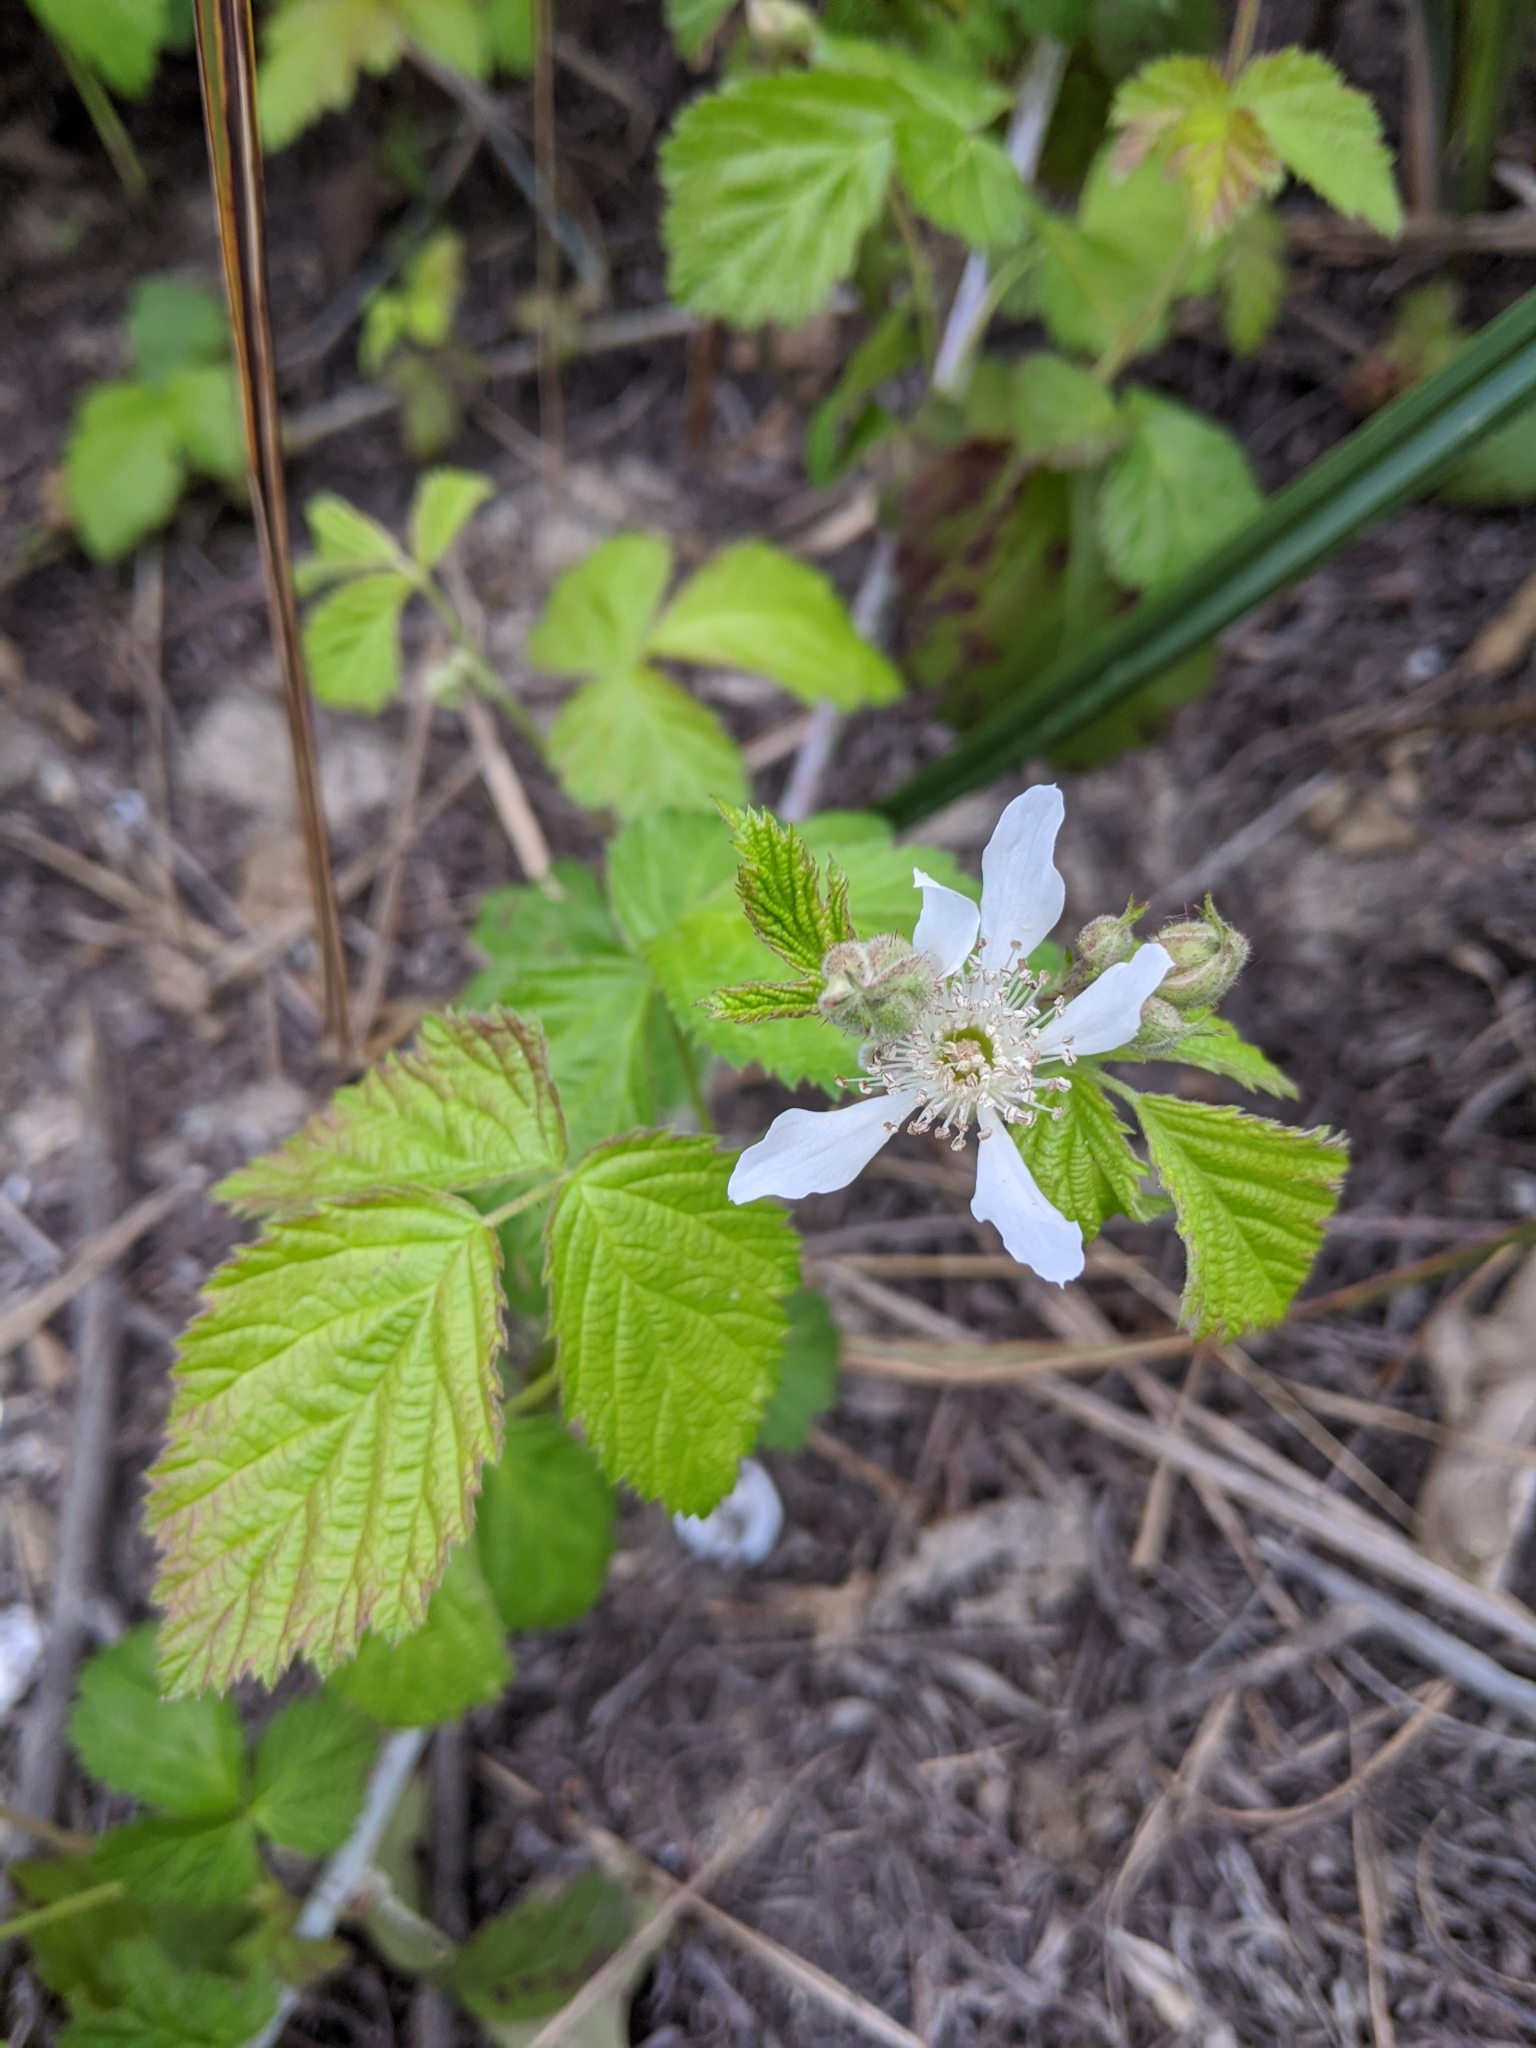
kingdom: Plantae
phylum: Tracheophyta
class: Magnoliopsida
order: Rosales
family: Rosaceae
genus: Rubus
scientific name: Rubus ursinus
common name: Pacific blackberry
